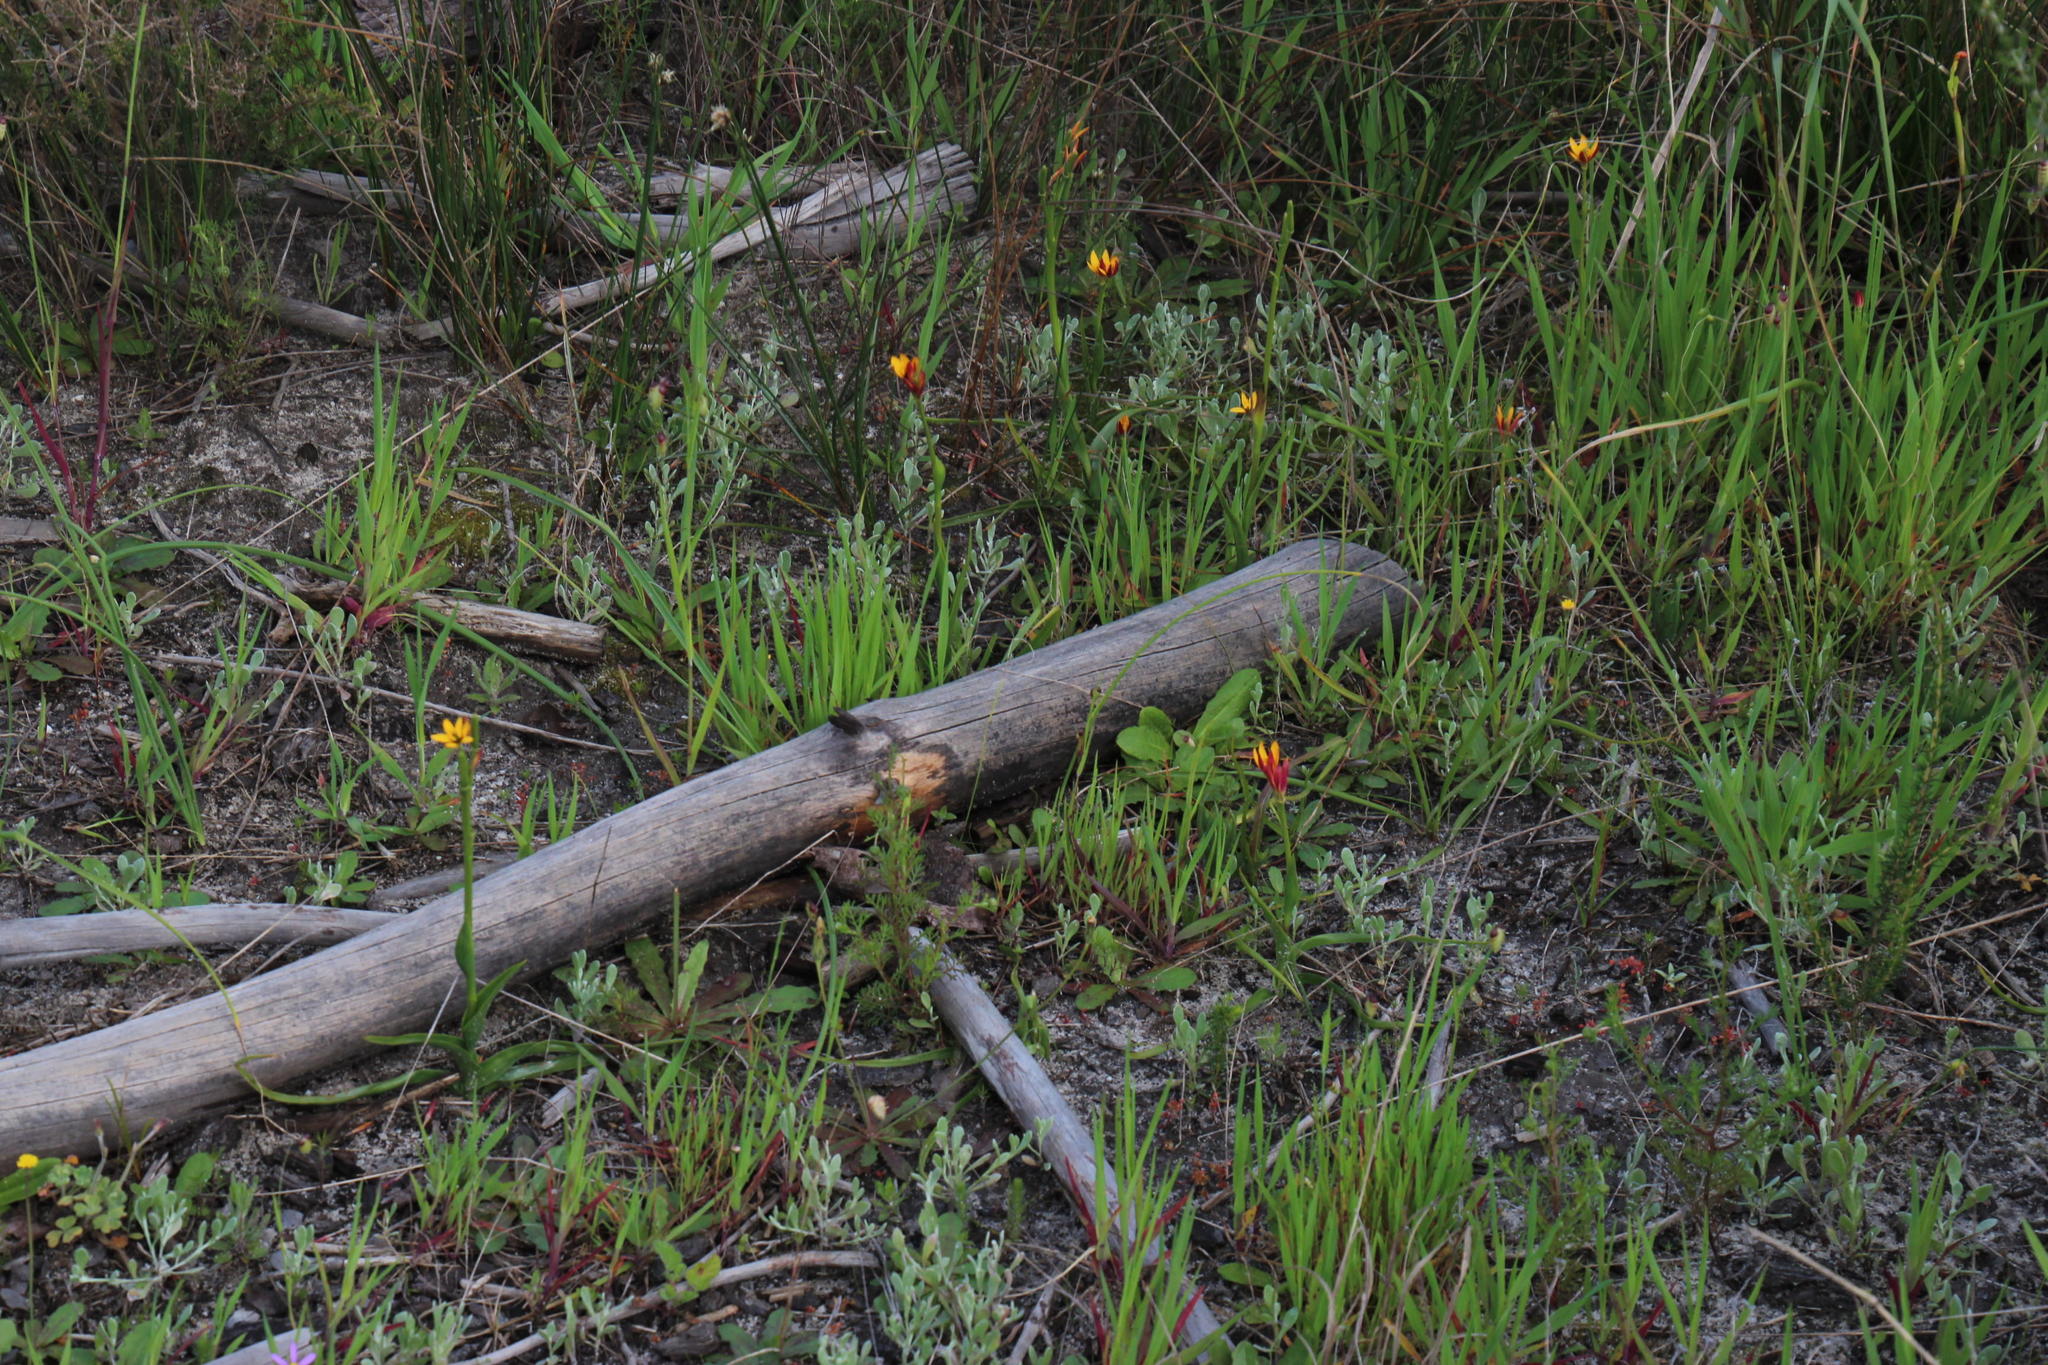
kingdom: Plantae
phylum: Tracheophyta
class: Liliopsida
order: Asparagales
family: Hypoxidaceae
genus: Pauridia
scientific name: Pauridia capensis
